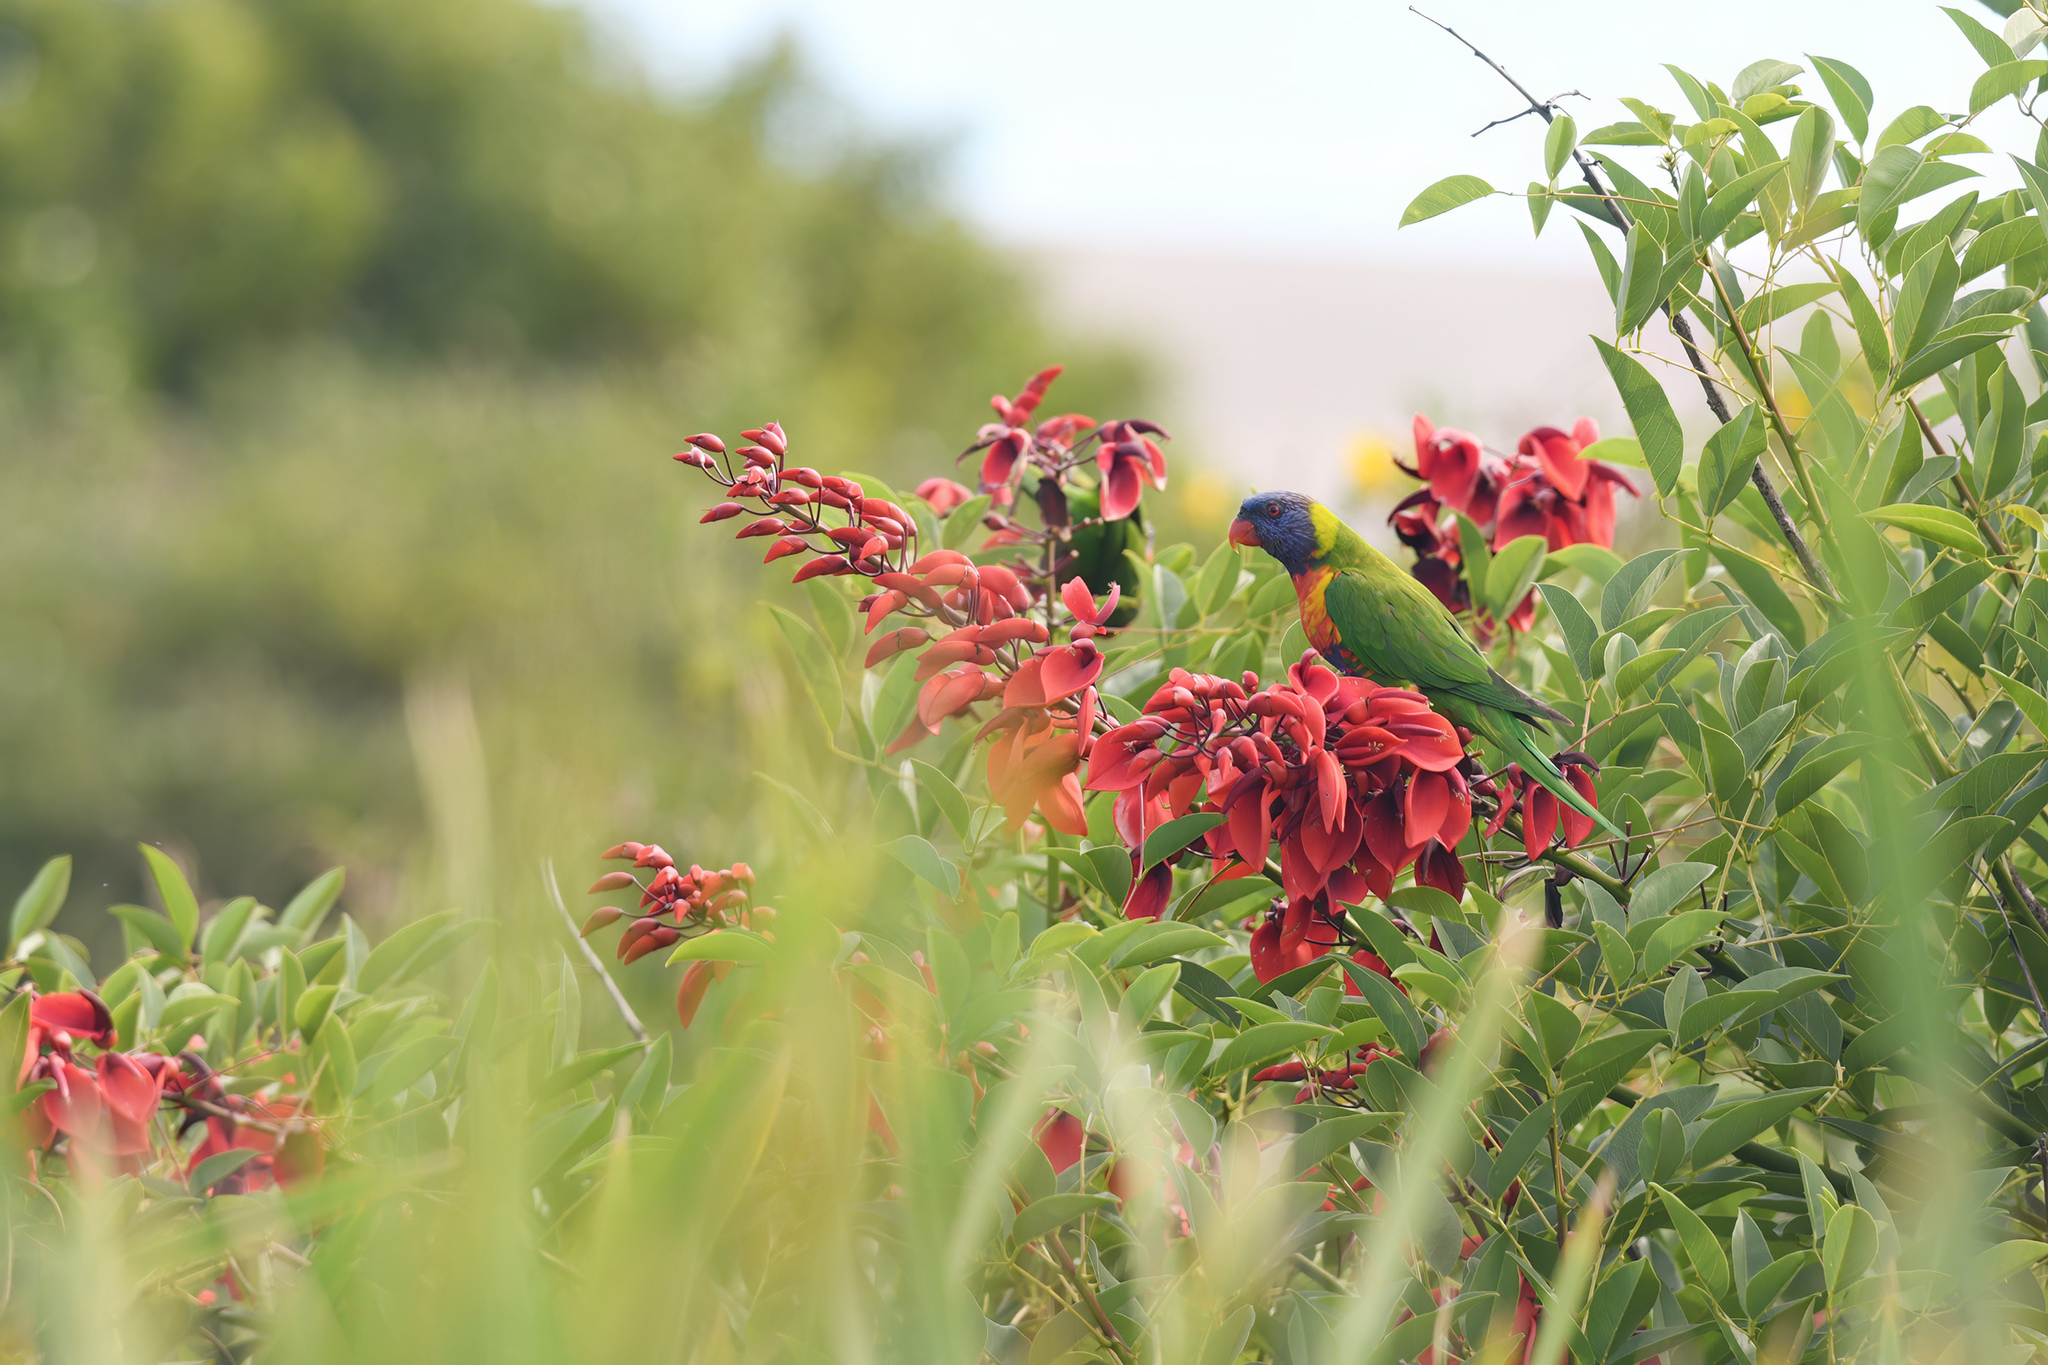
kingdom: Animalia
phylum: Chordata
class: Aves
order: Psittaciformes
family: Psittacidae
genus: Trichoglossus
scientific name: Trichoglossus haematodus
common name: Coconut lorikeet
